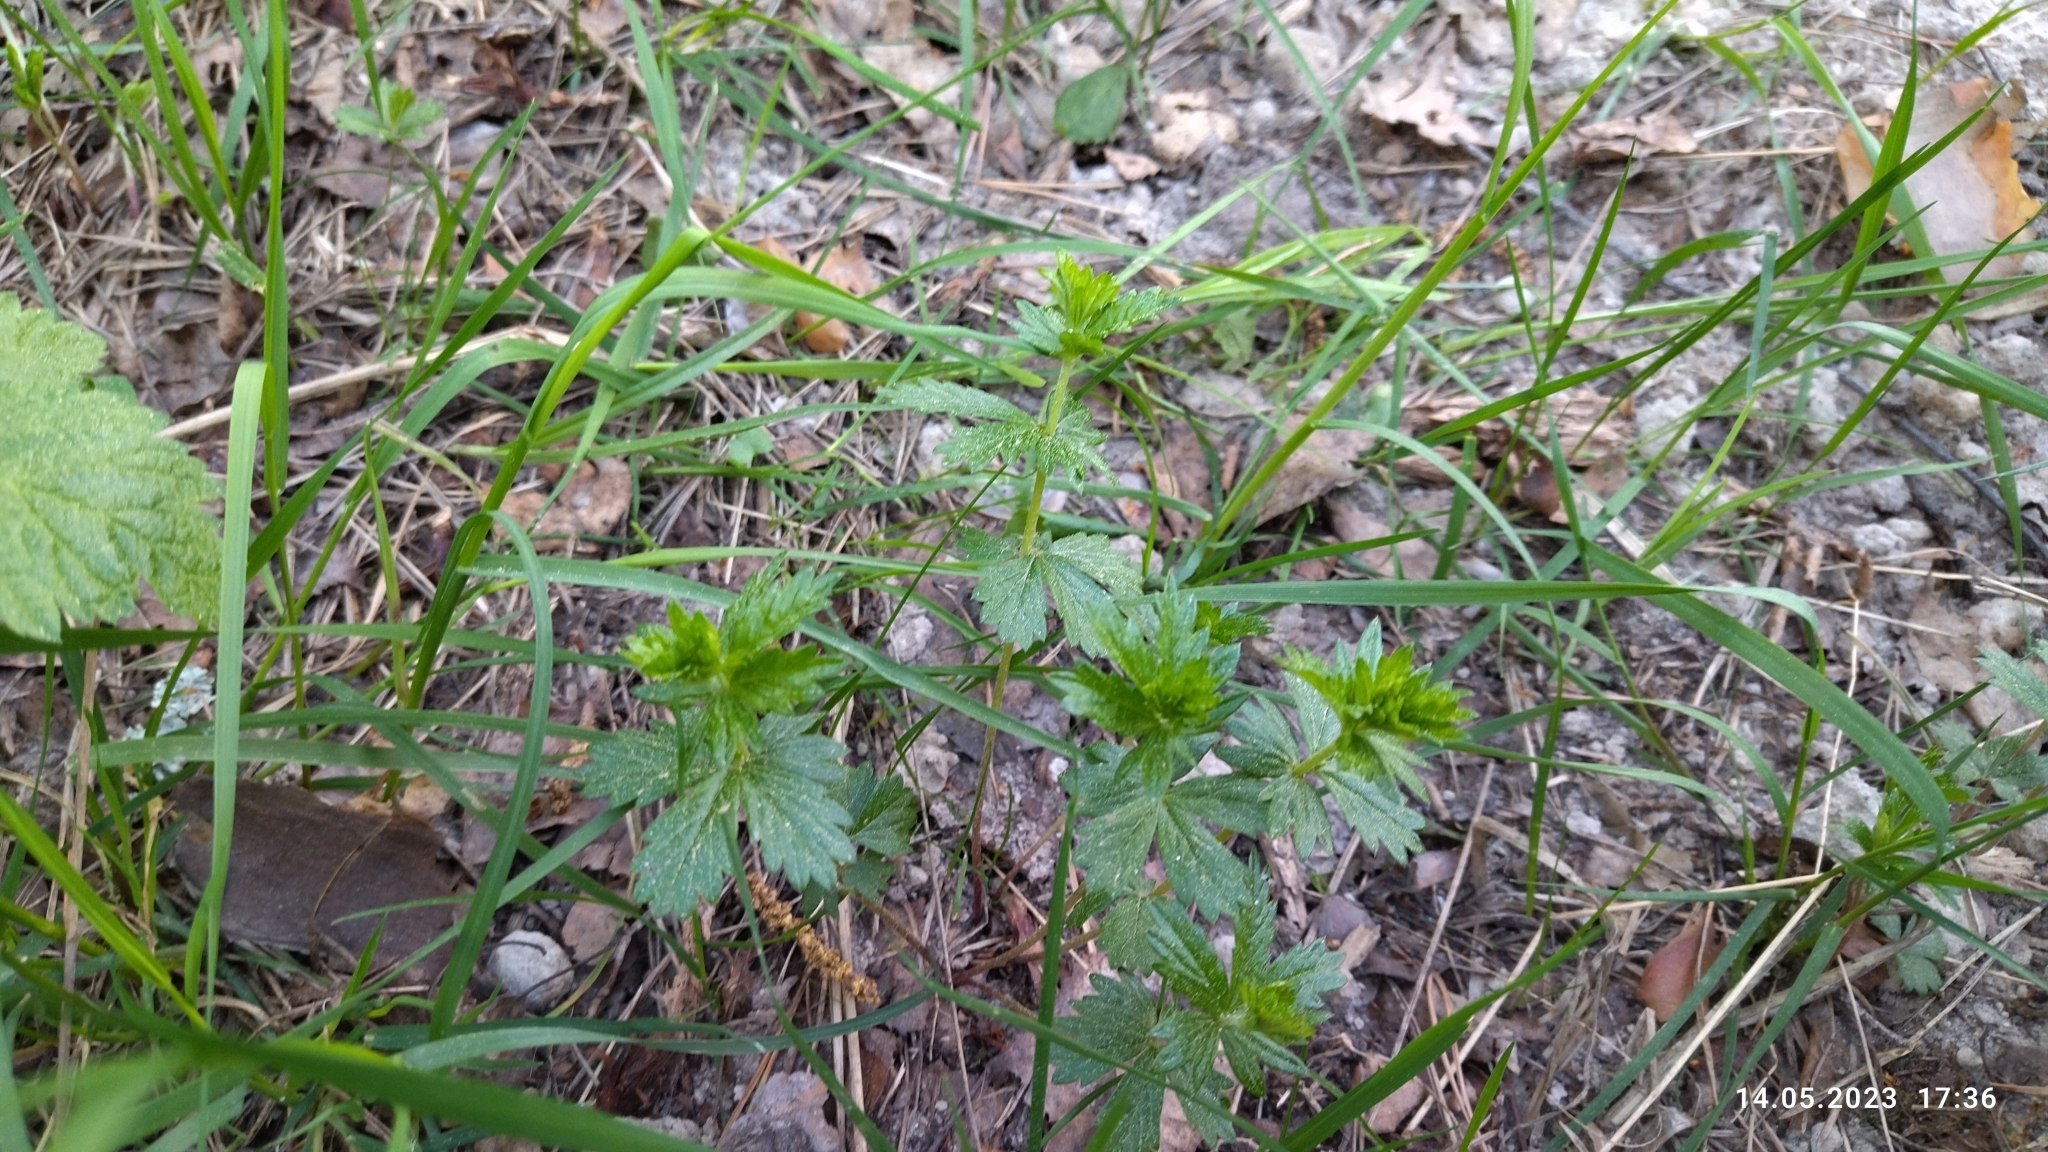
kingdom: Plantae
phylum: Tracheophyta
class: Magnoliopsida
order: Rosales
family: Rosaceae
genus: Potentilla
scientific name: Potentilla erecta
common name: Tormentil
